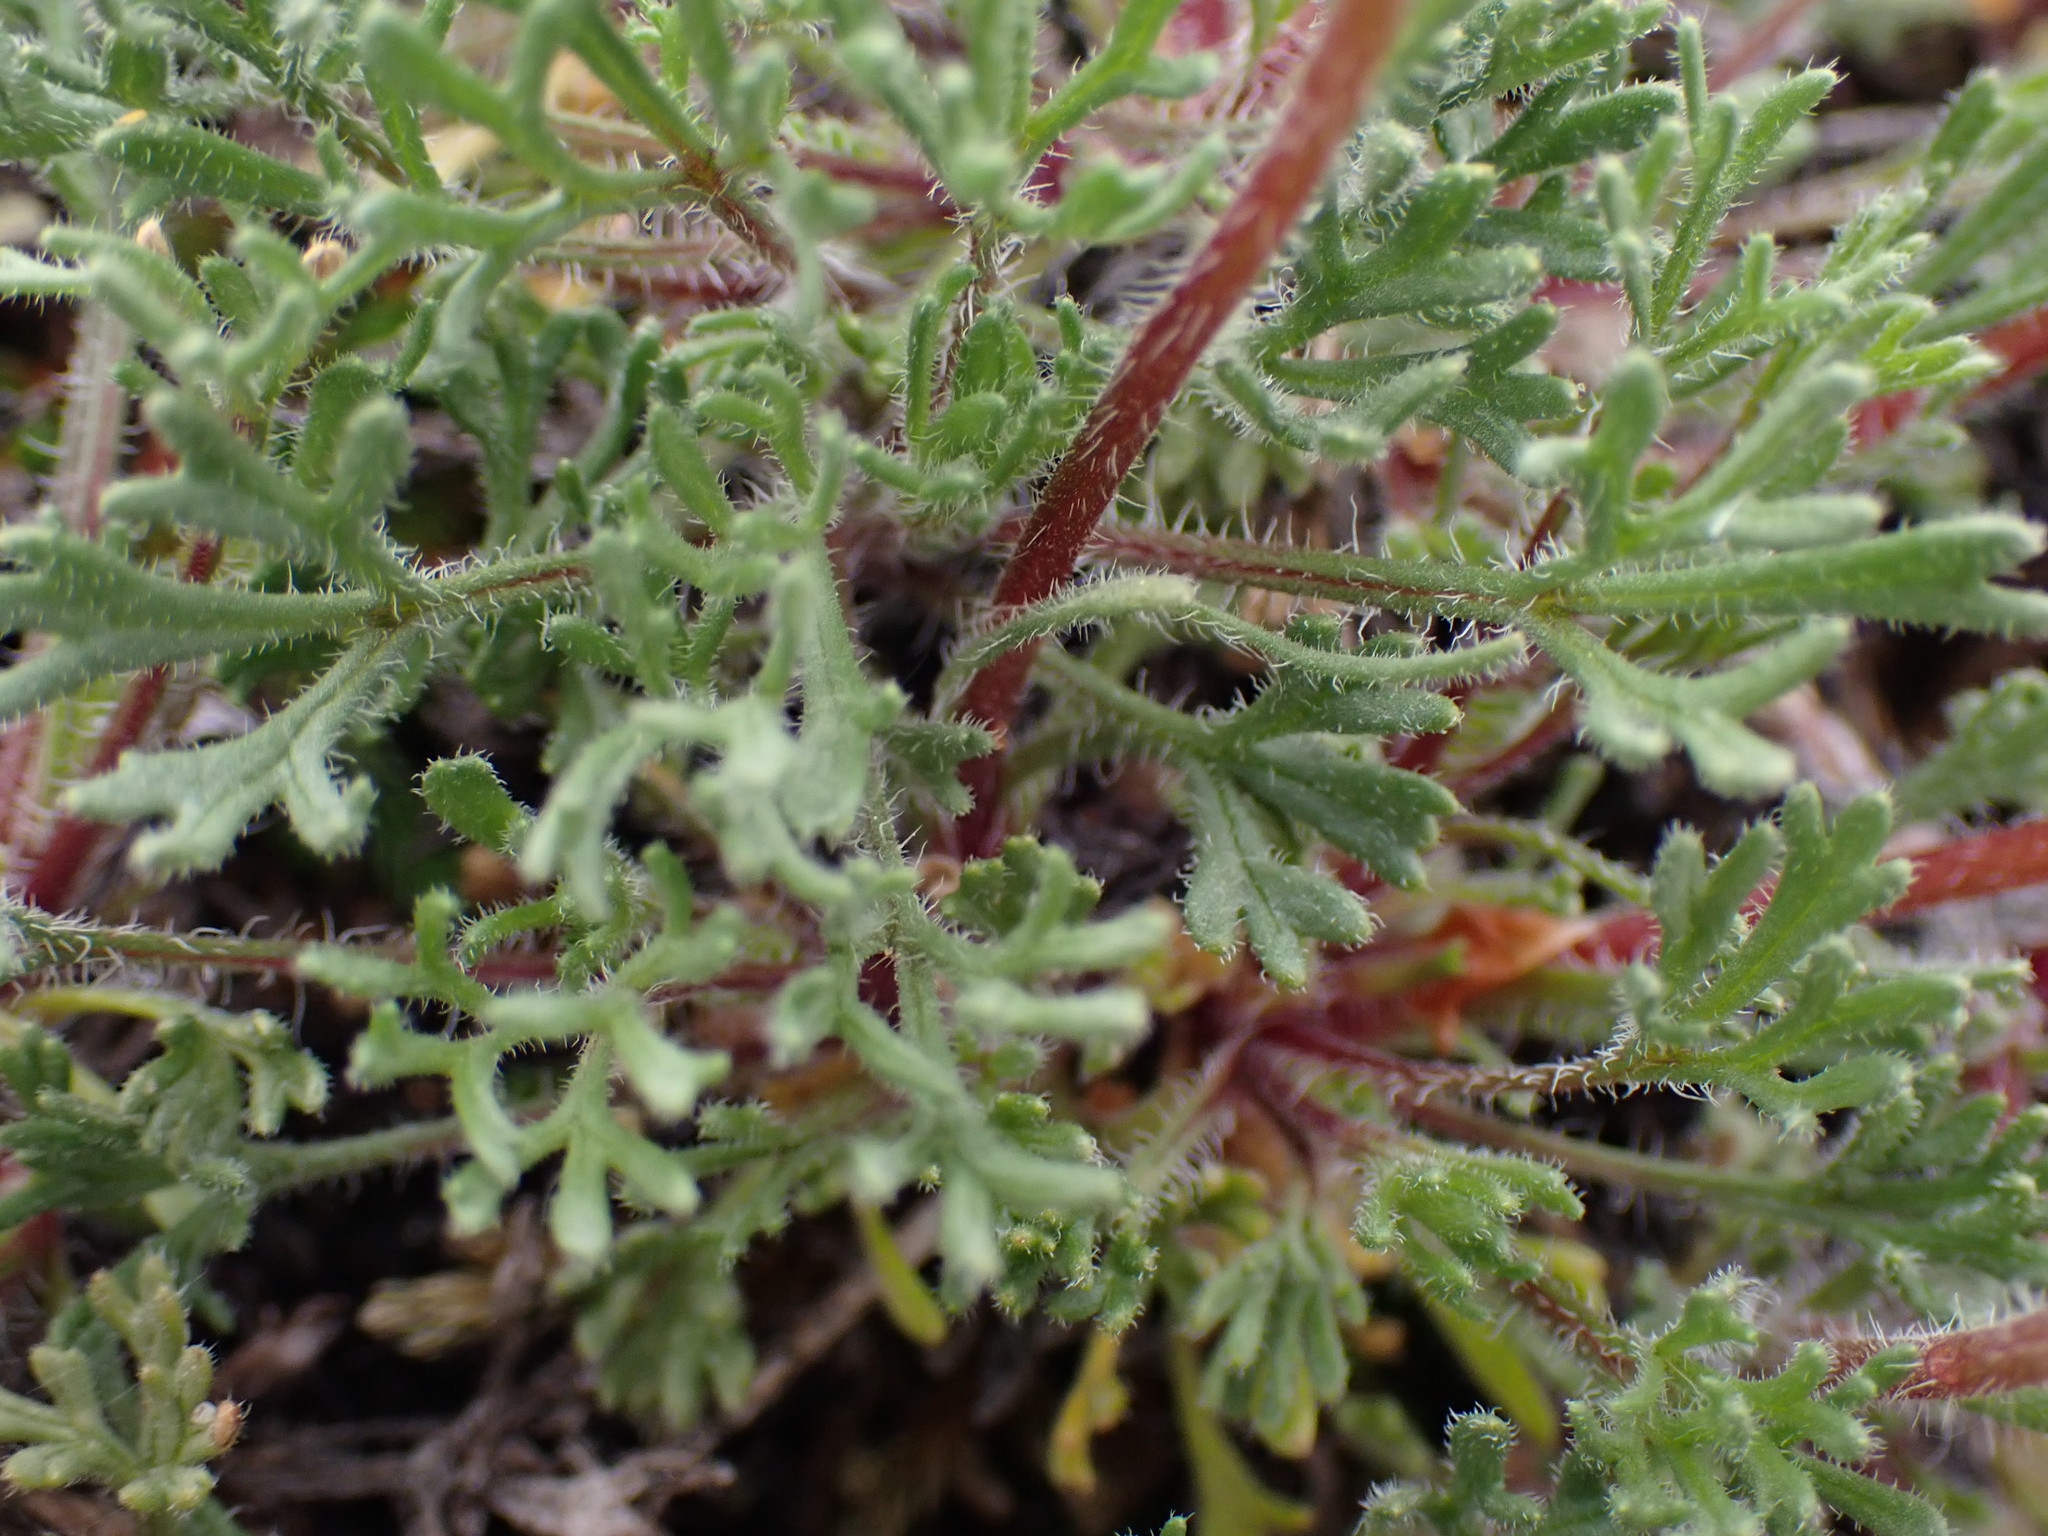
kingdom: Plantae
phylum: Tracheophyta
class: Magnoliopsida
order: Asterales
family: Asteraceae
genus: Erigeron
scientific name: Erigeron compositus
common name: Dwarf mountain fleabane
